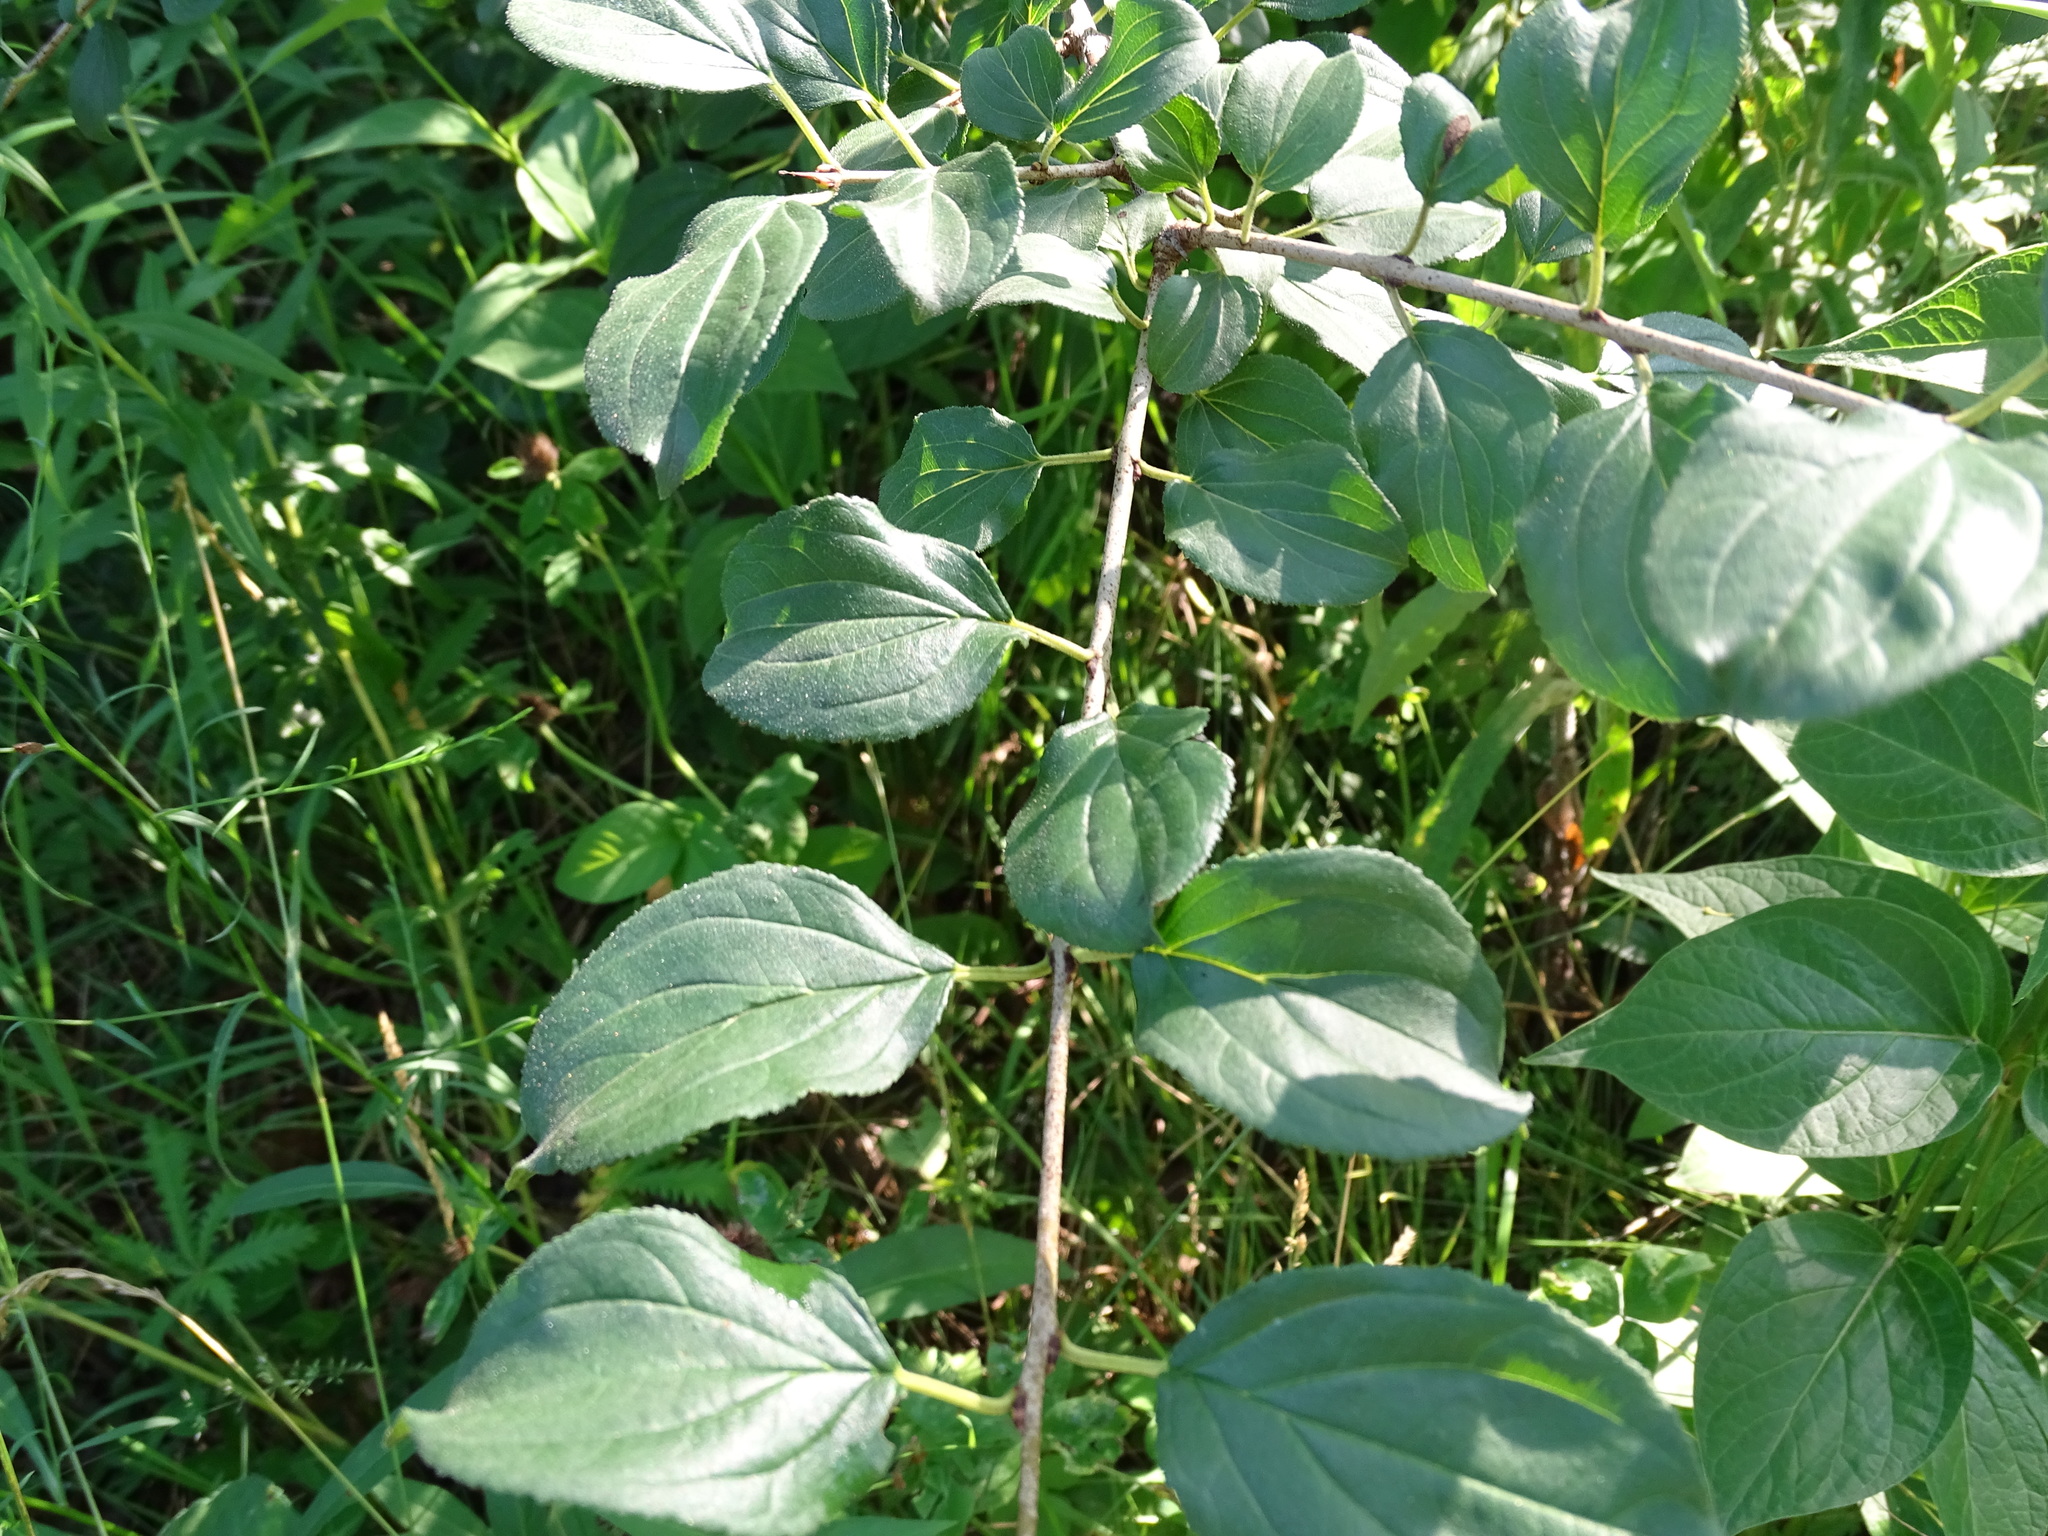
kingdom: Plantae
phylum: Tracheophyta
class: Magnoliopsida
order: Rosales
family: Rhamnaceae
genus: Rhamnus
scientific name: Rhamnus cathartica
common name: Common buckthorn
